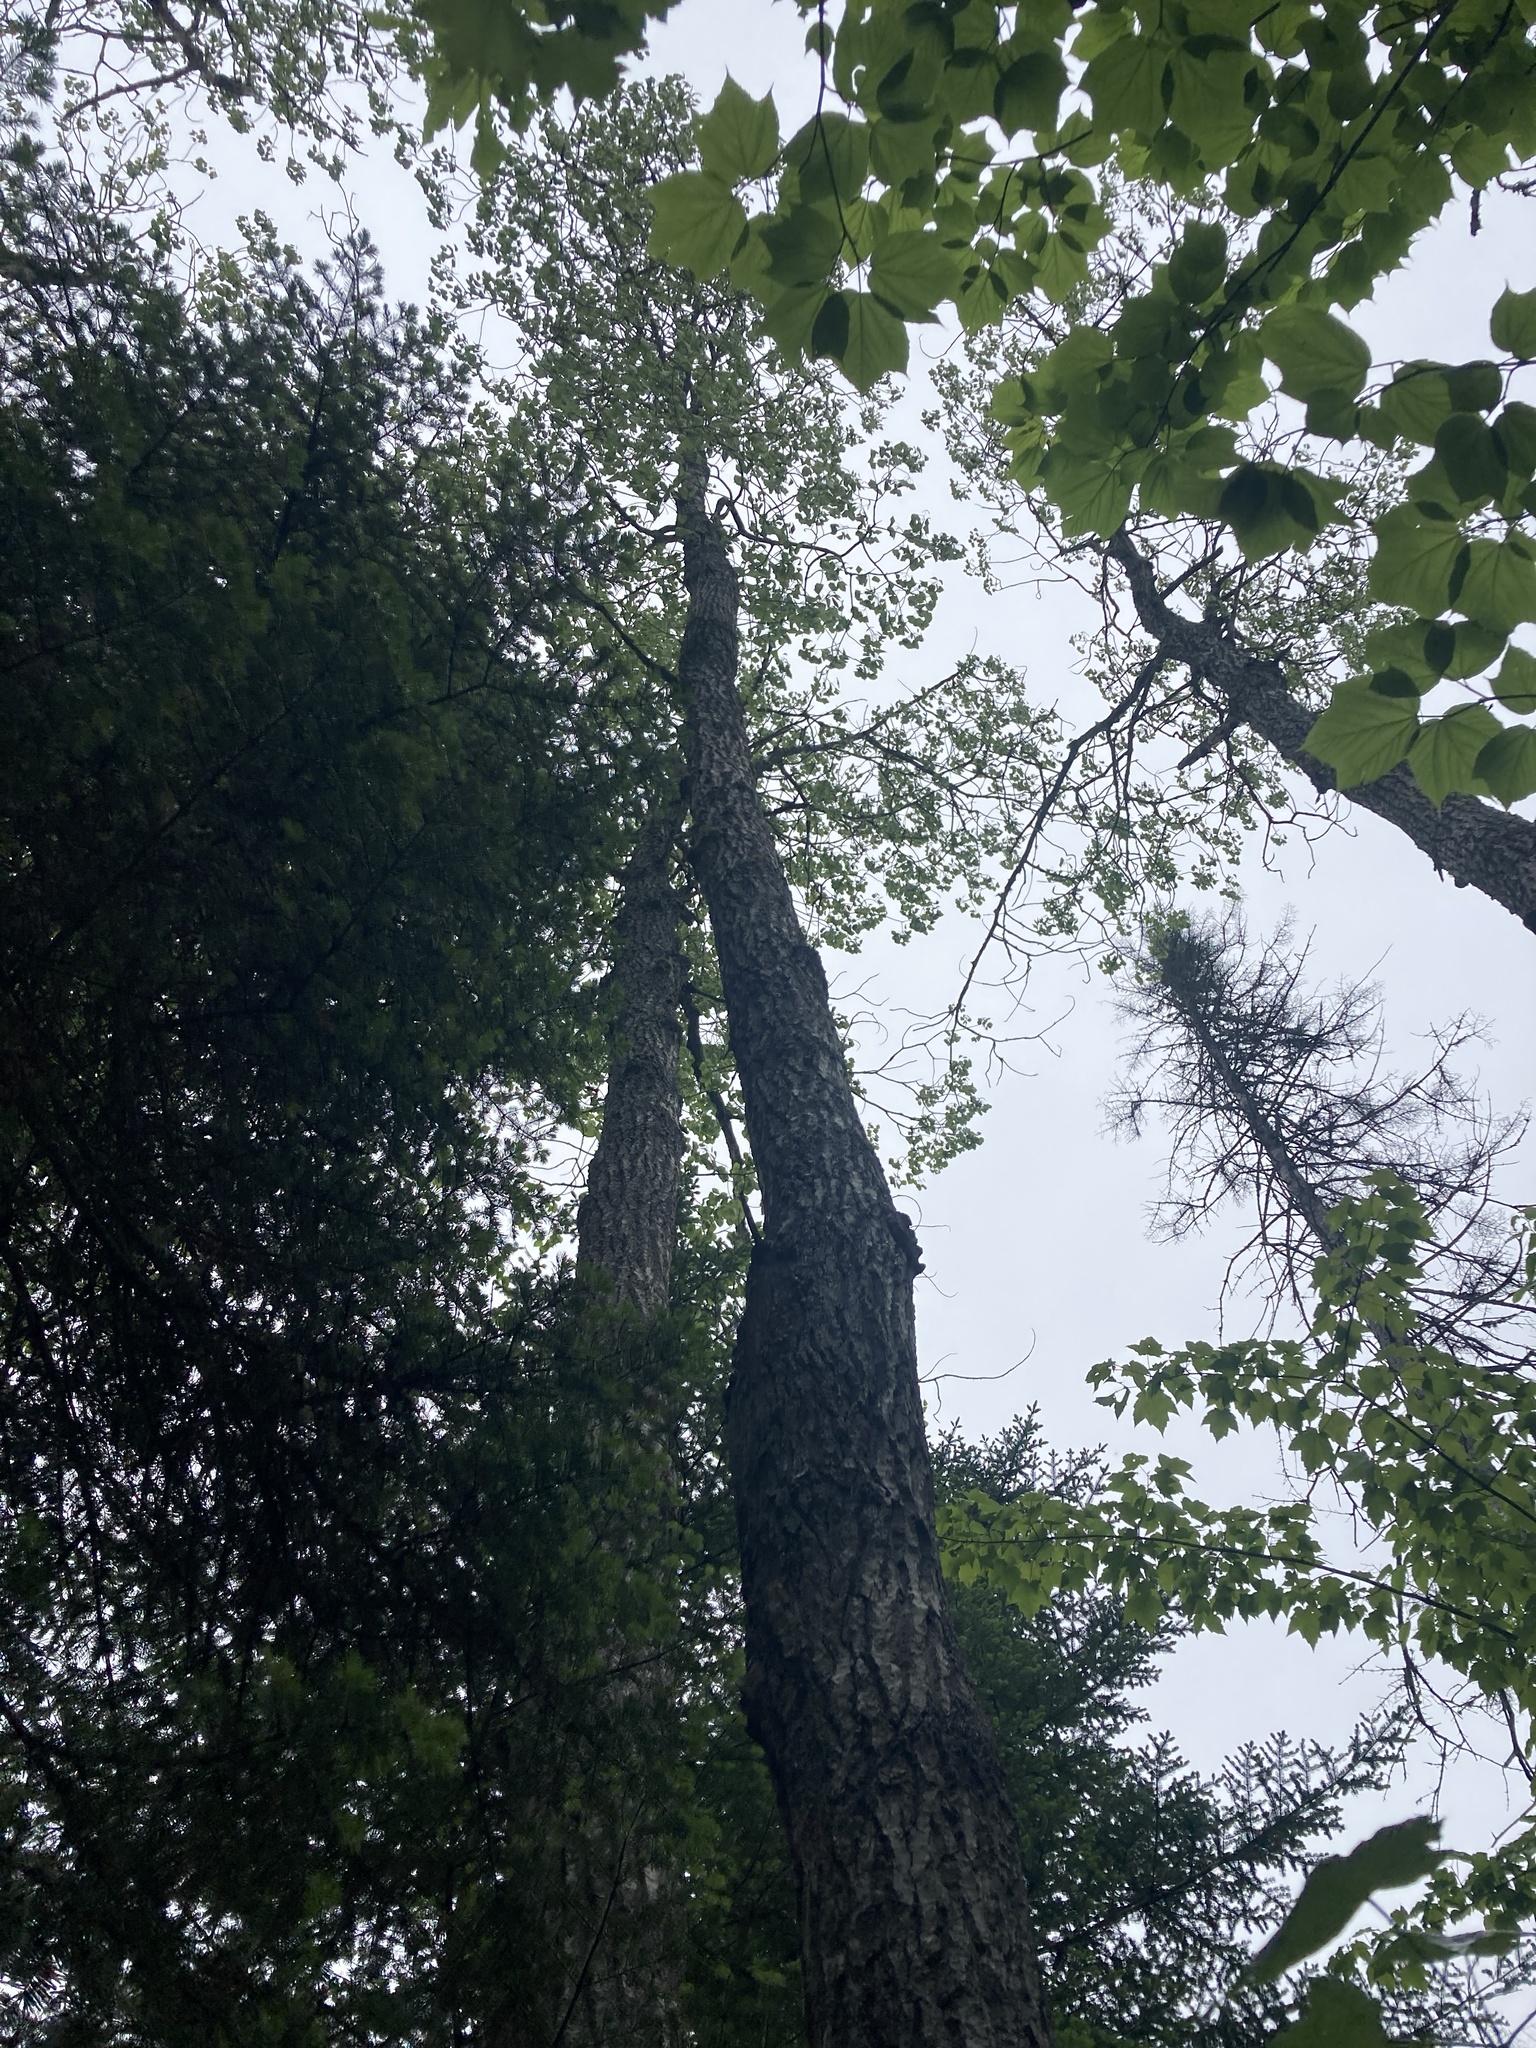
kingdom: Plantae
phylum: Tracheophyta
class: Magnoliopsida
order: Malpighiales
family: Salicaceae
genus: Populus
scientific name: Populus grandidentata
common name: Bigtooth aspen
